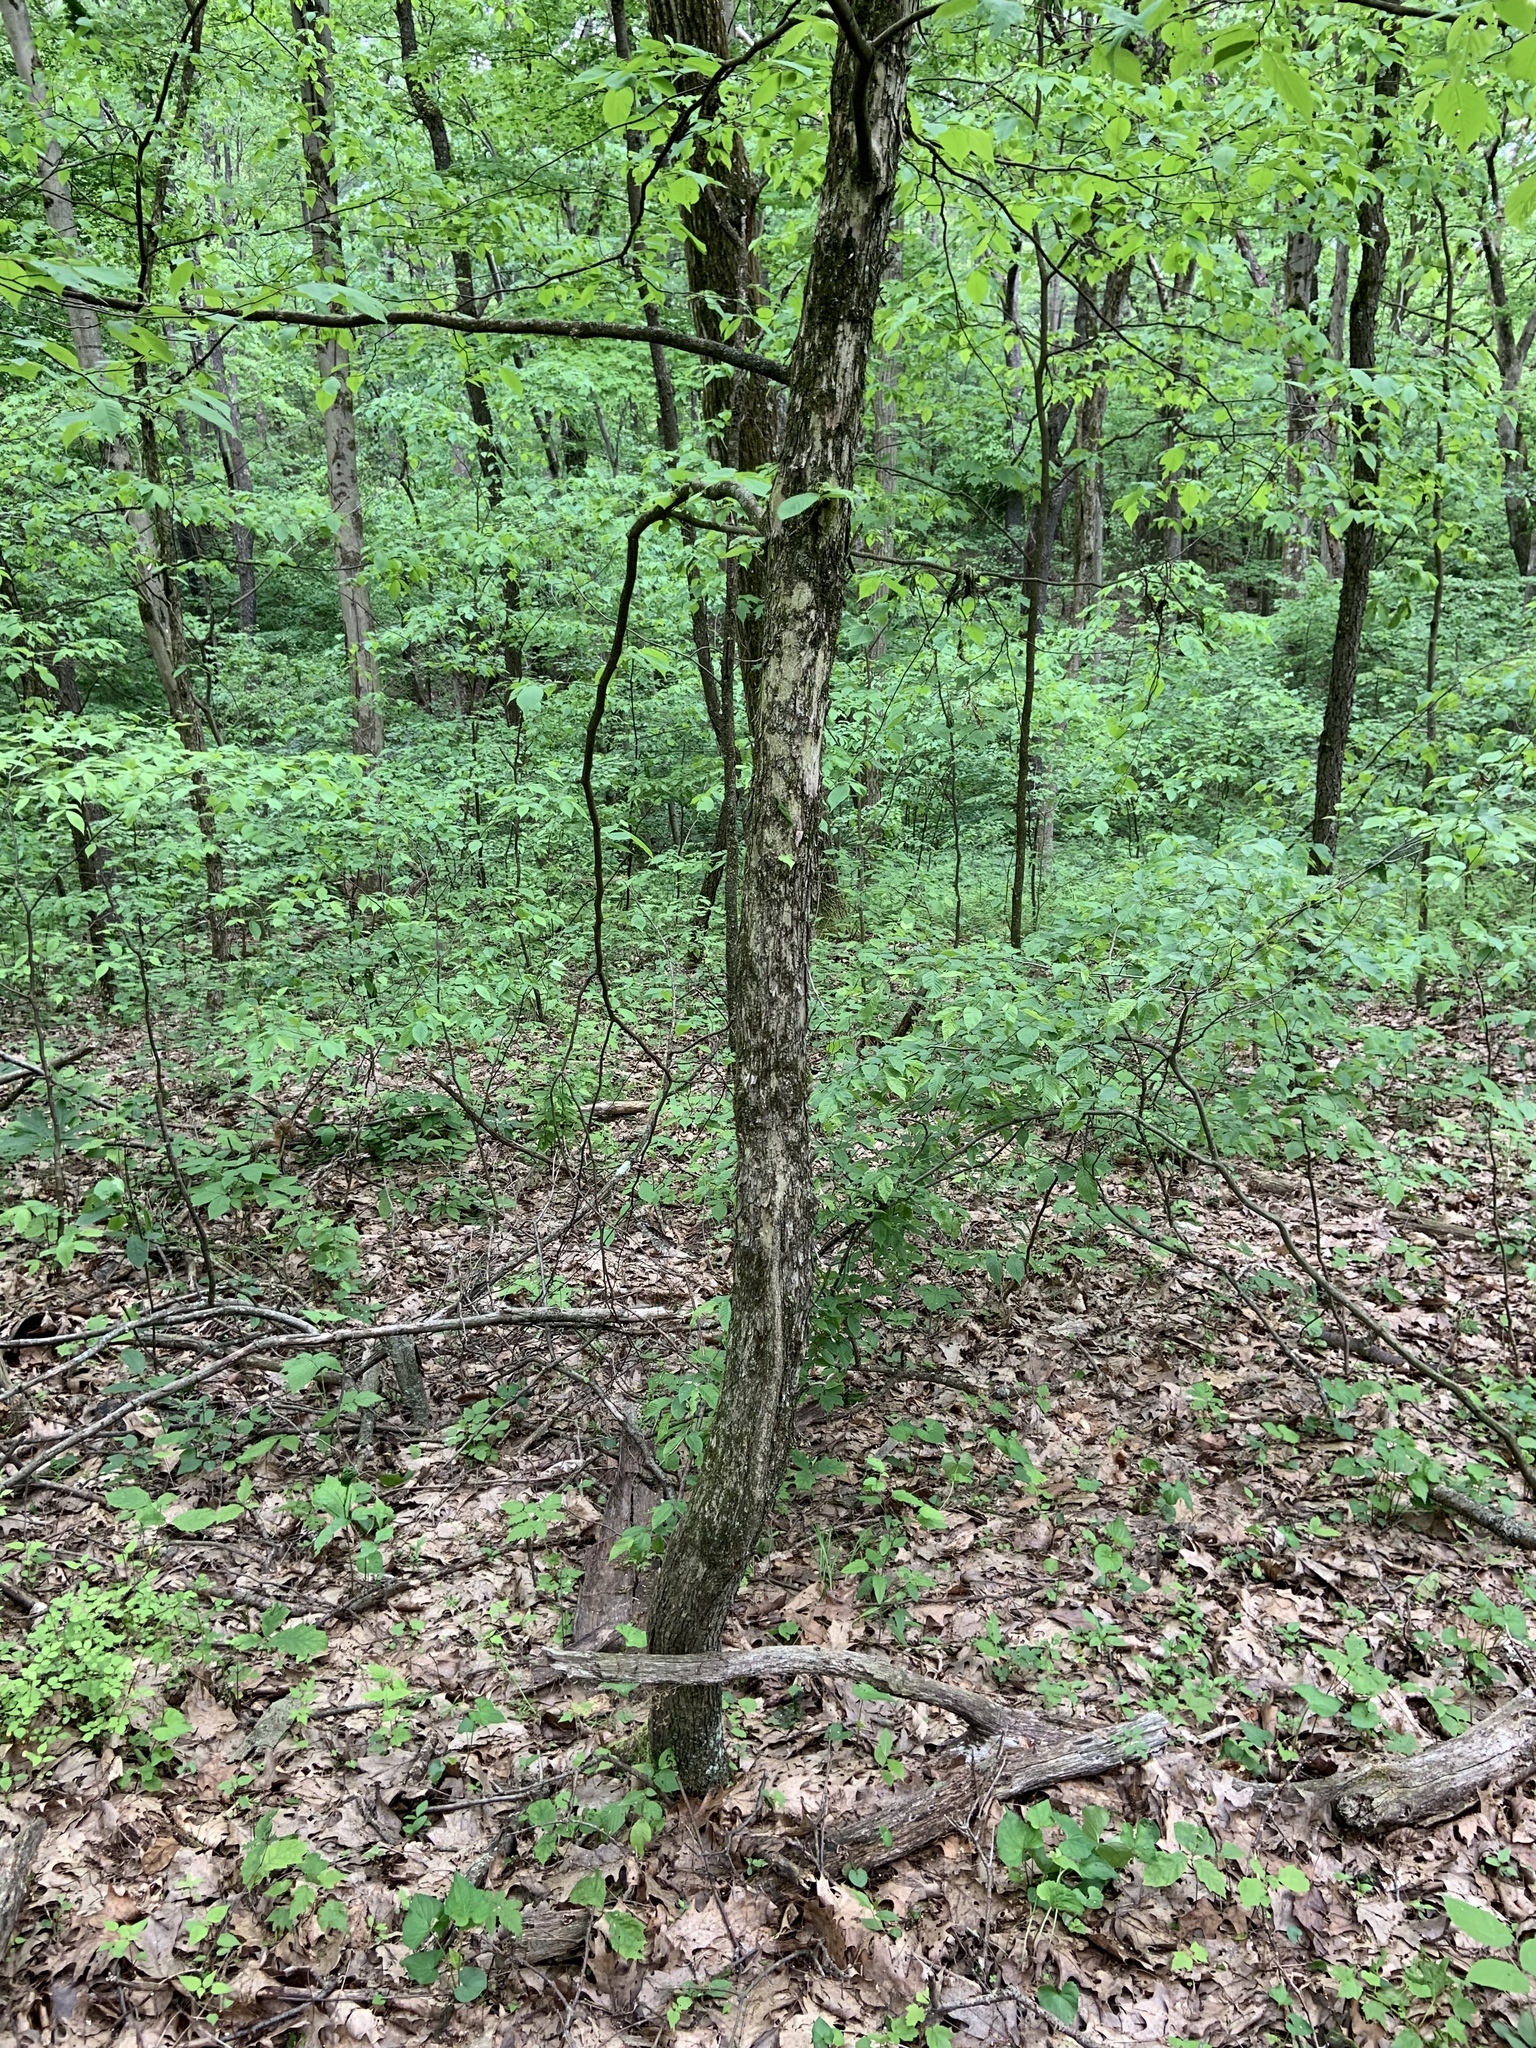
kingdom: Plantae
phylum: Tracheophyta
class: Magnoliopsida
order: Fagales
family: Betulaceae
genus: Ostrya
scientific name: Ostrya virginiana
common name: Ironwood
